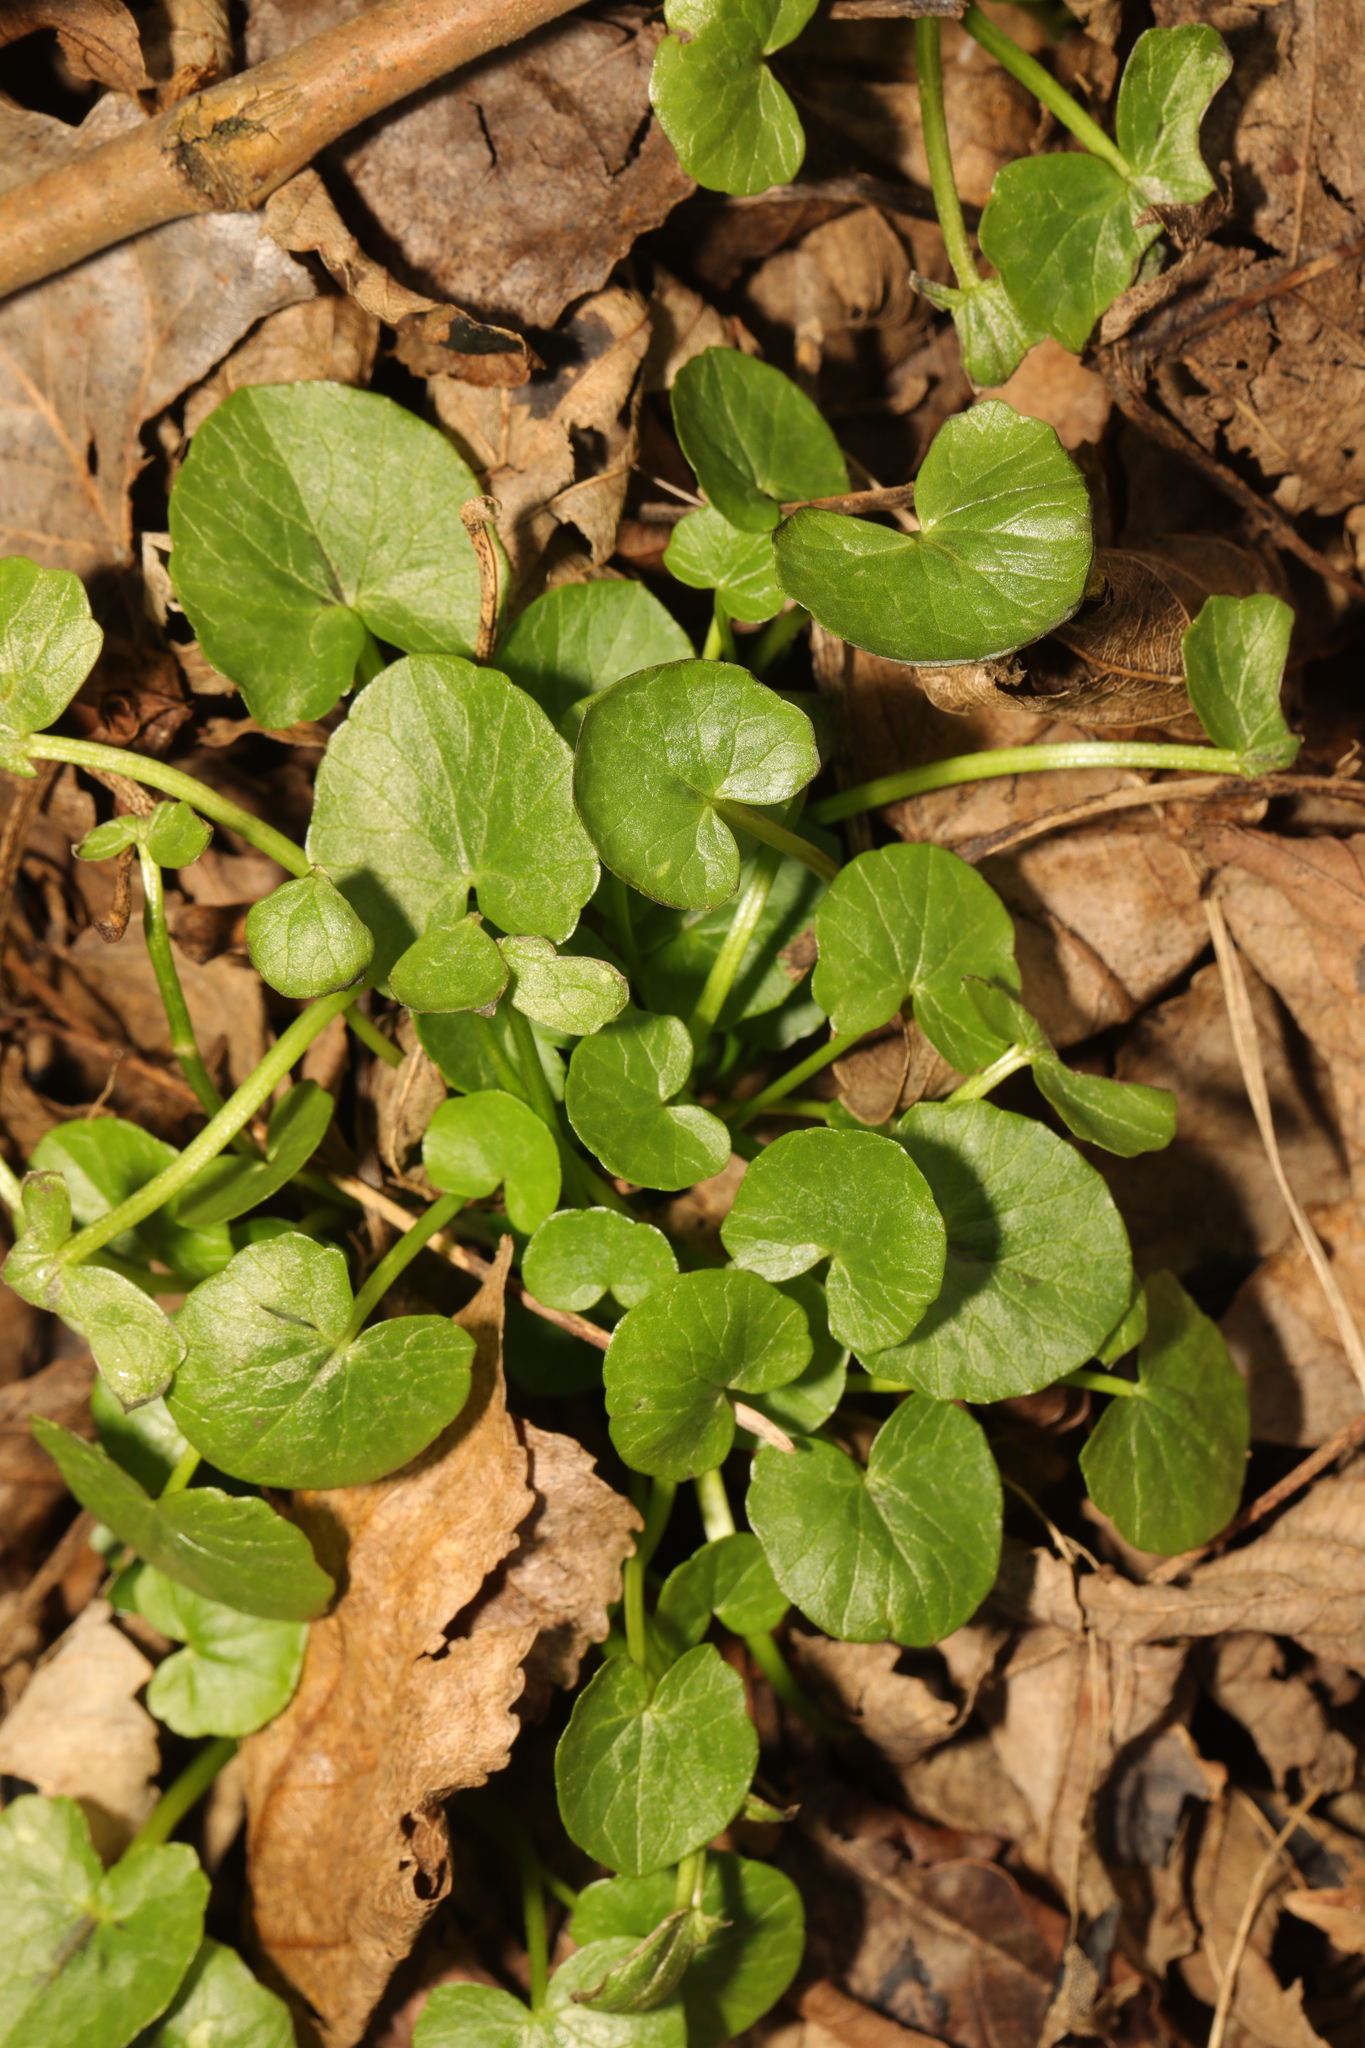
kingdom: Plantae
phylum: Tracheophyta
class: Magnoliopsida
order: Ranunculales
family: Ranunculaceae
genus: Ficaria
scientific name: Ficaria verna
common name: Lesser celandine
